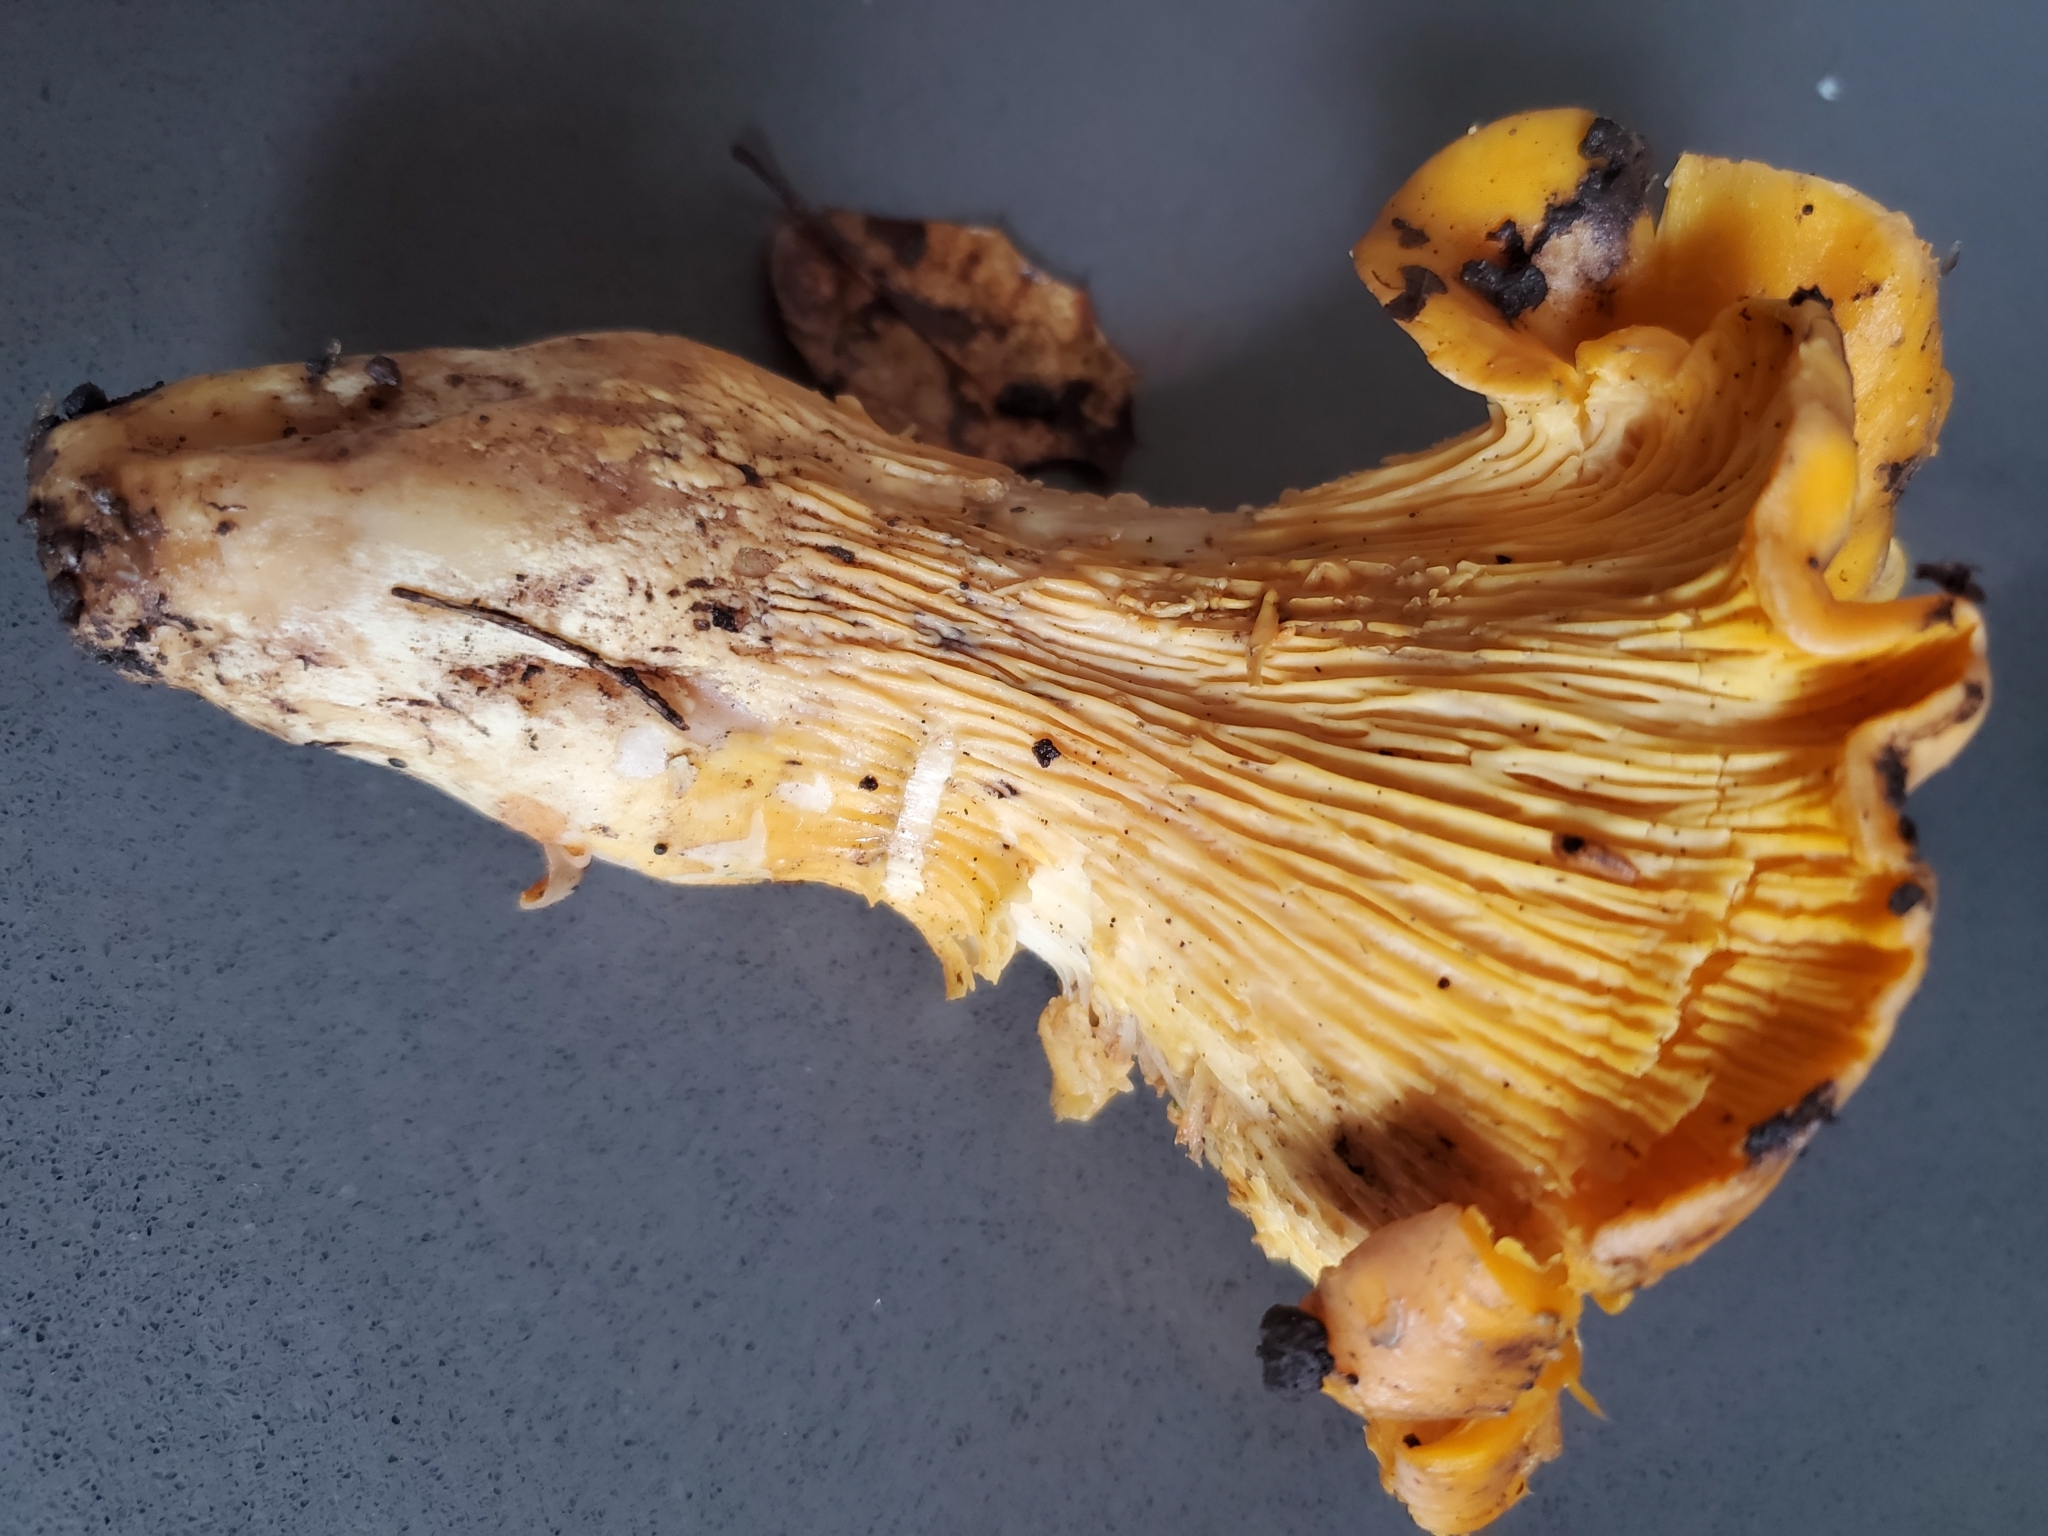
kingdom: Fungi
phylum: Basidiomycota
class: Agaricomycetes
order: Cantharellales
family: Hydnaceae
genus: Cantharellus
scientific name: Cantharellus californicus
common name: California golden chanterelle
